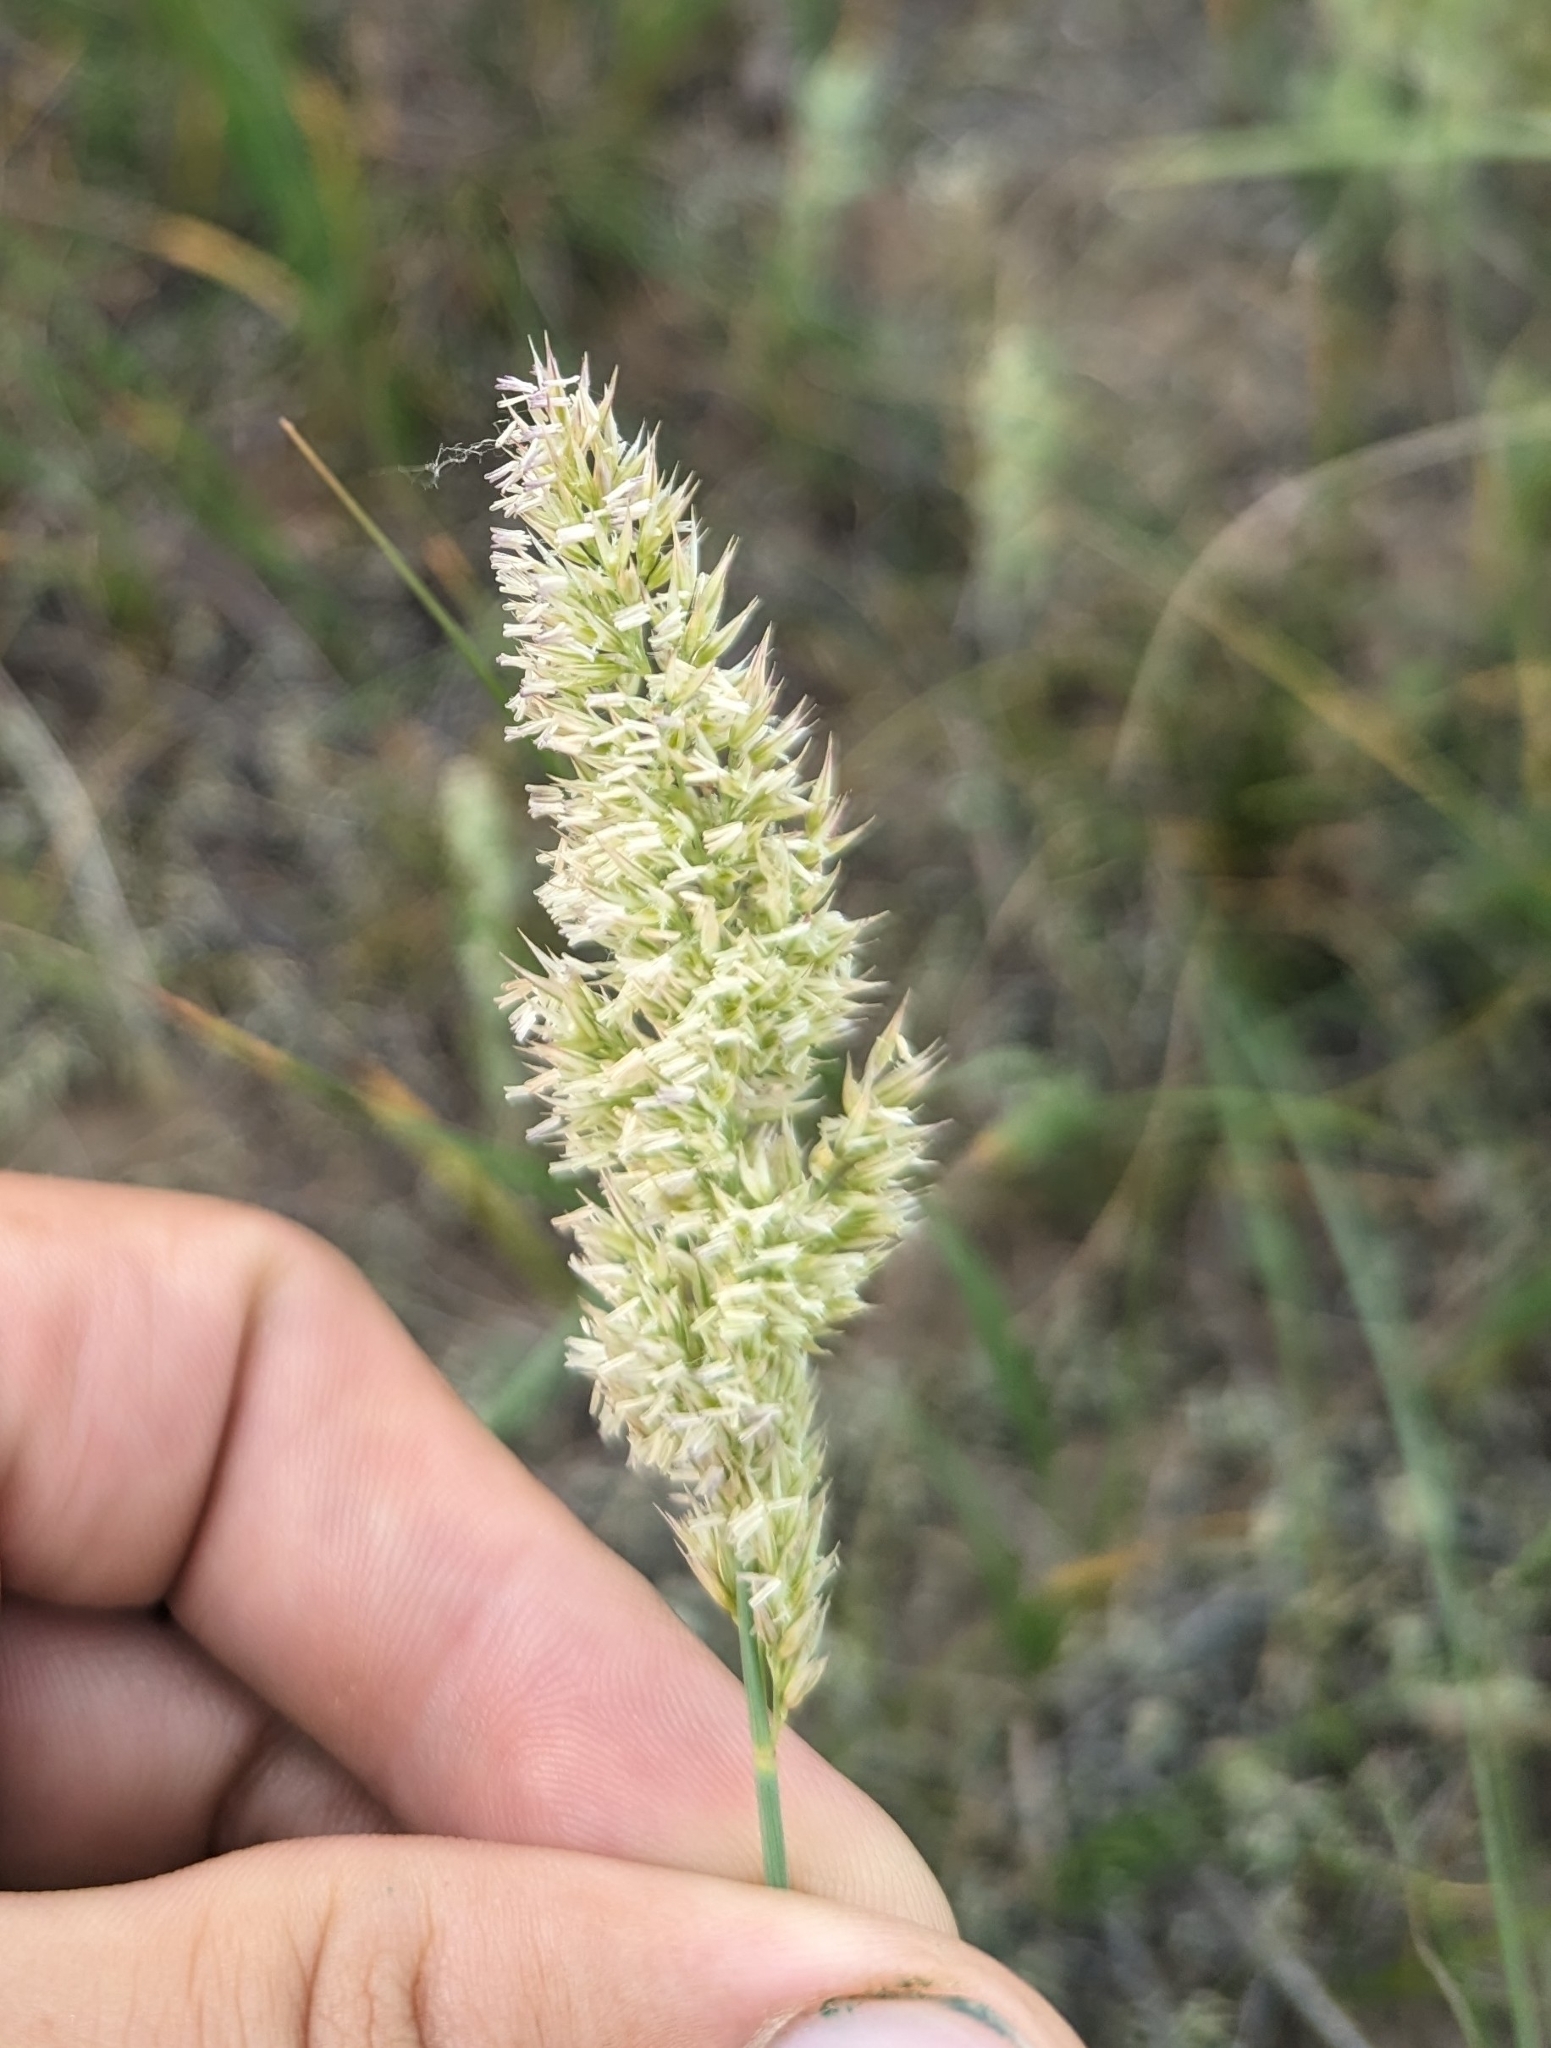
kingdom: Plantae
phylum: Tracheophyta
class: Liliopsida
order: Poales
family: Poaceae
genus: Koeleria
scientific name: Koeleria macrantha
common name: Crested hair-grass
